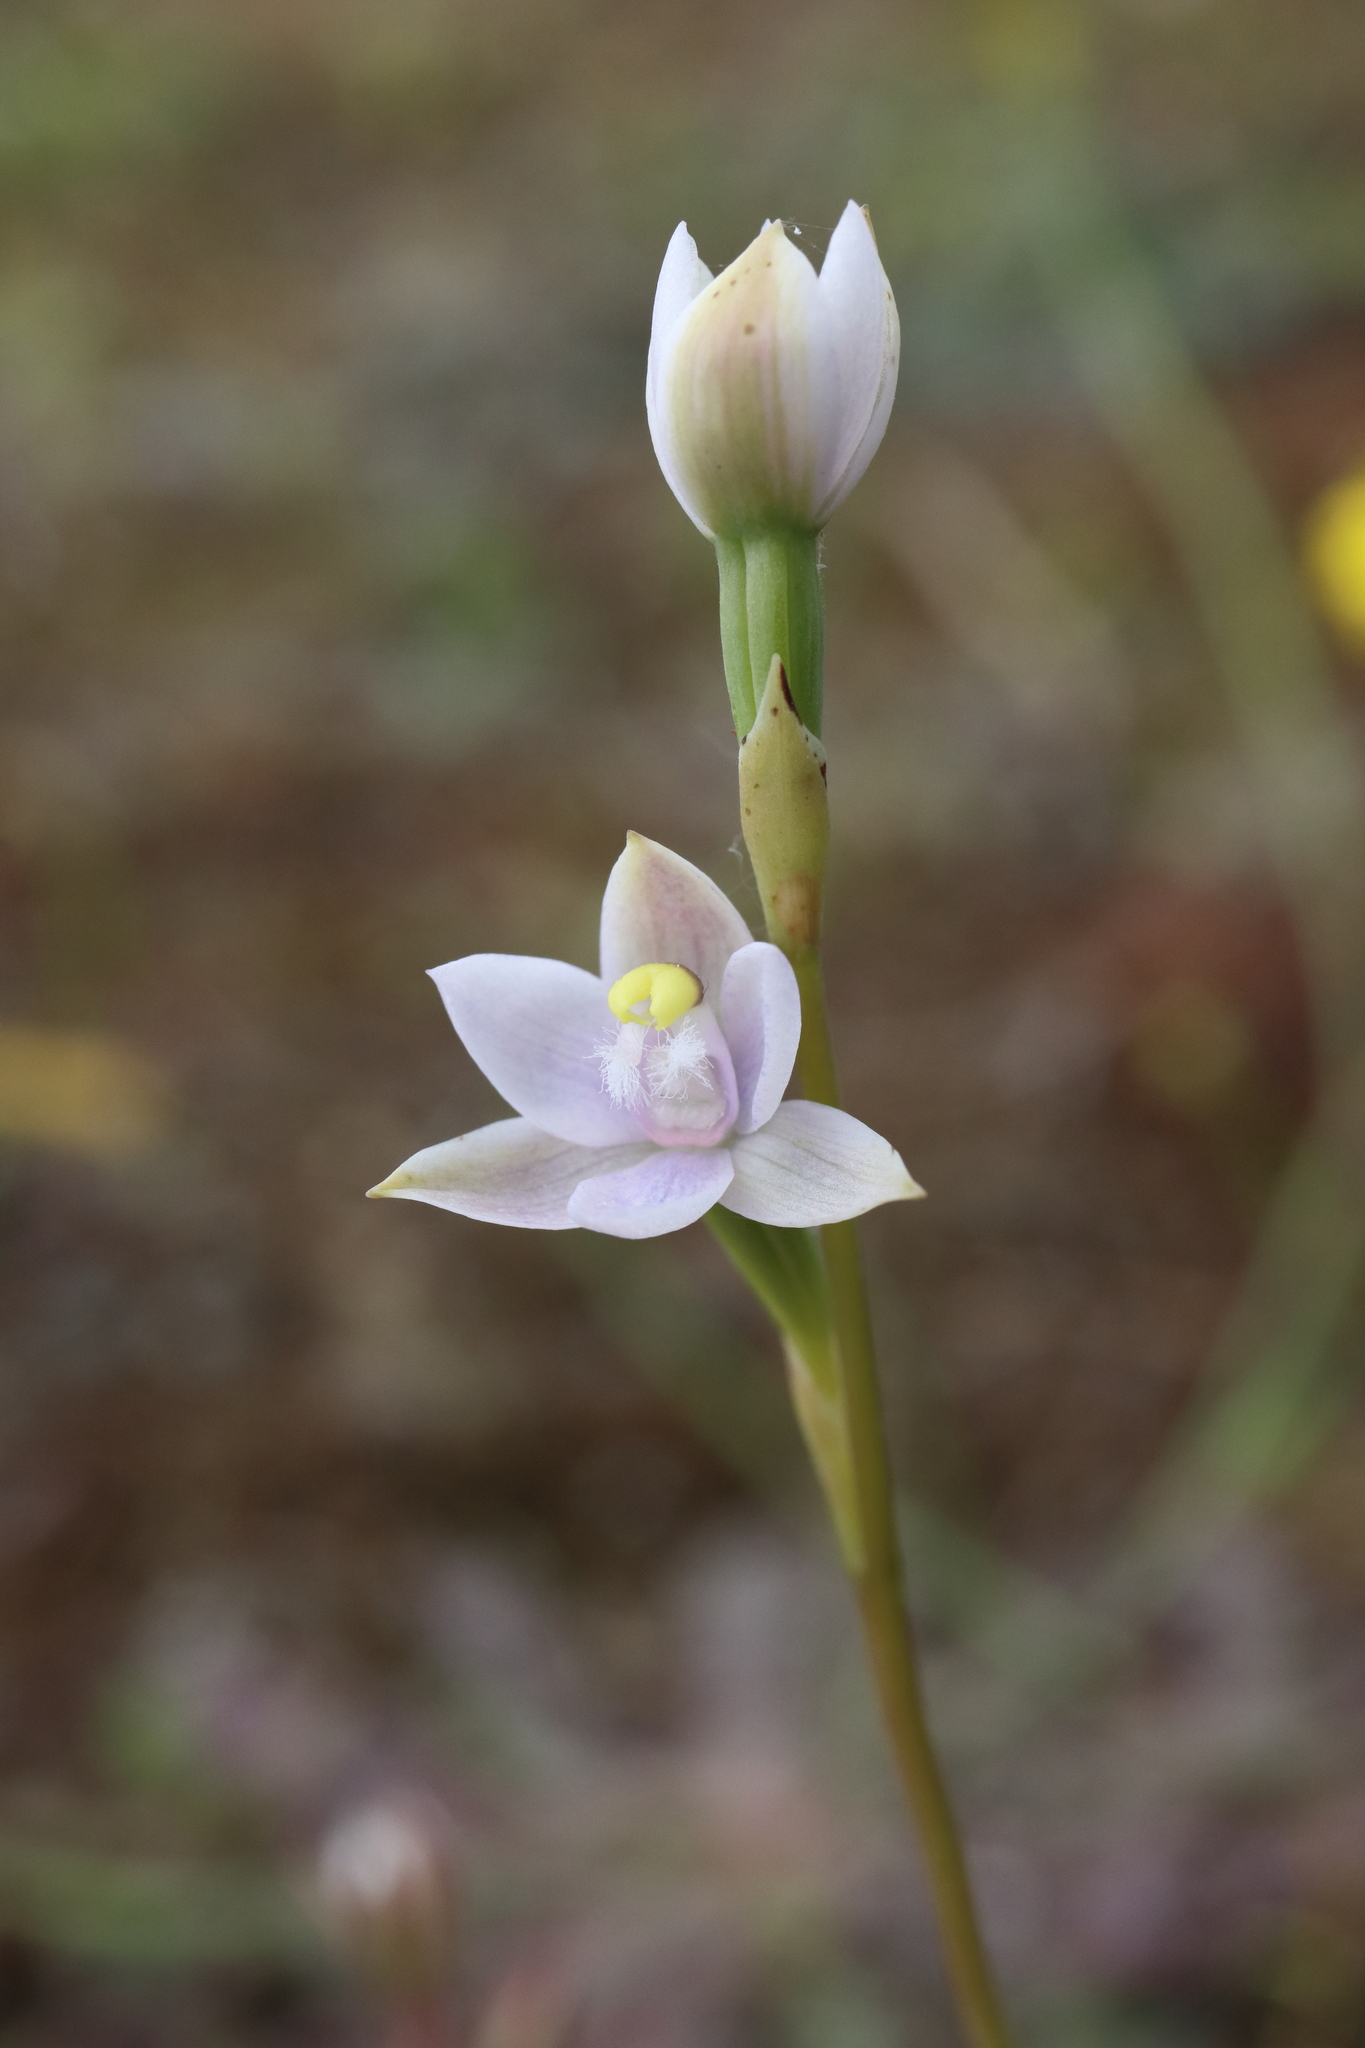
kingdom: Plantae
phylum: Tracheophyta
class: Liliopsida
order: Asparagales
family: Orchidaceae
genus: Thelymitra
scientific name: Thelymitra pauciflora
